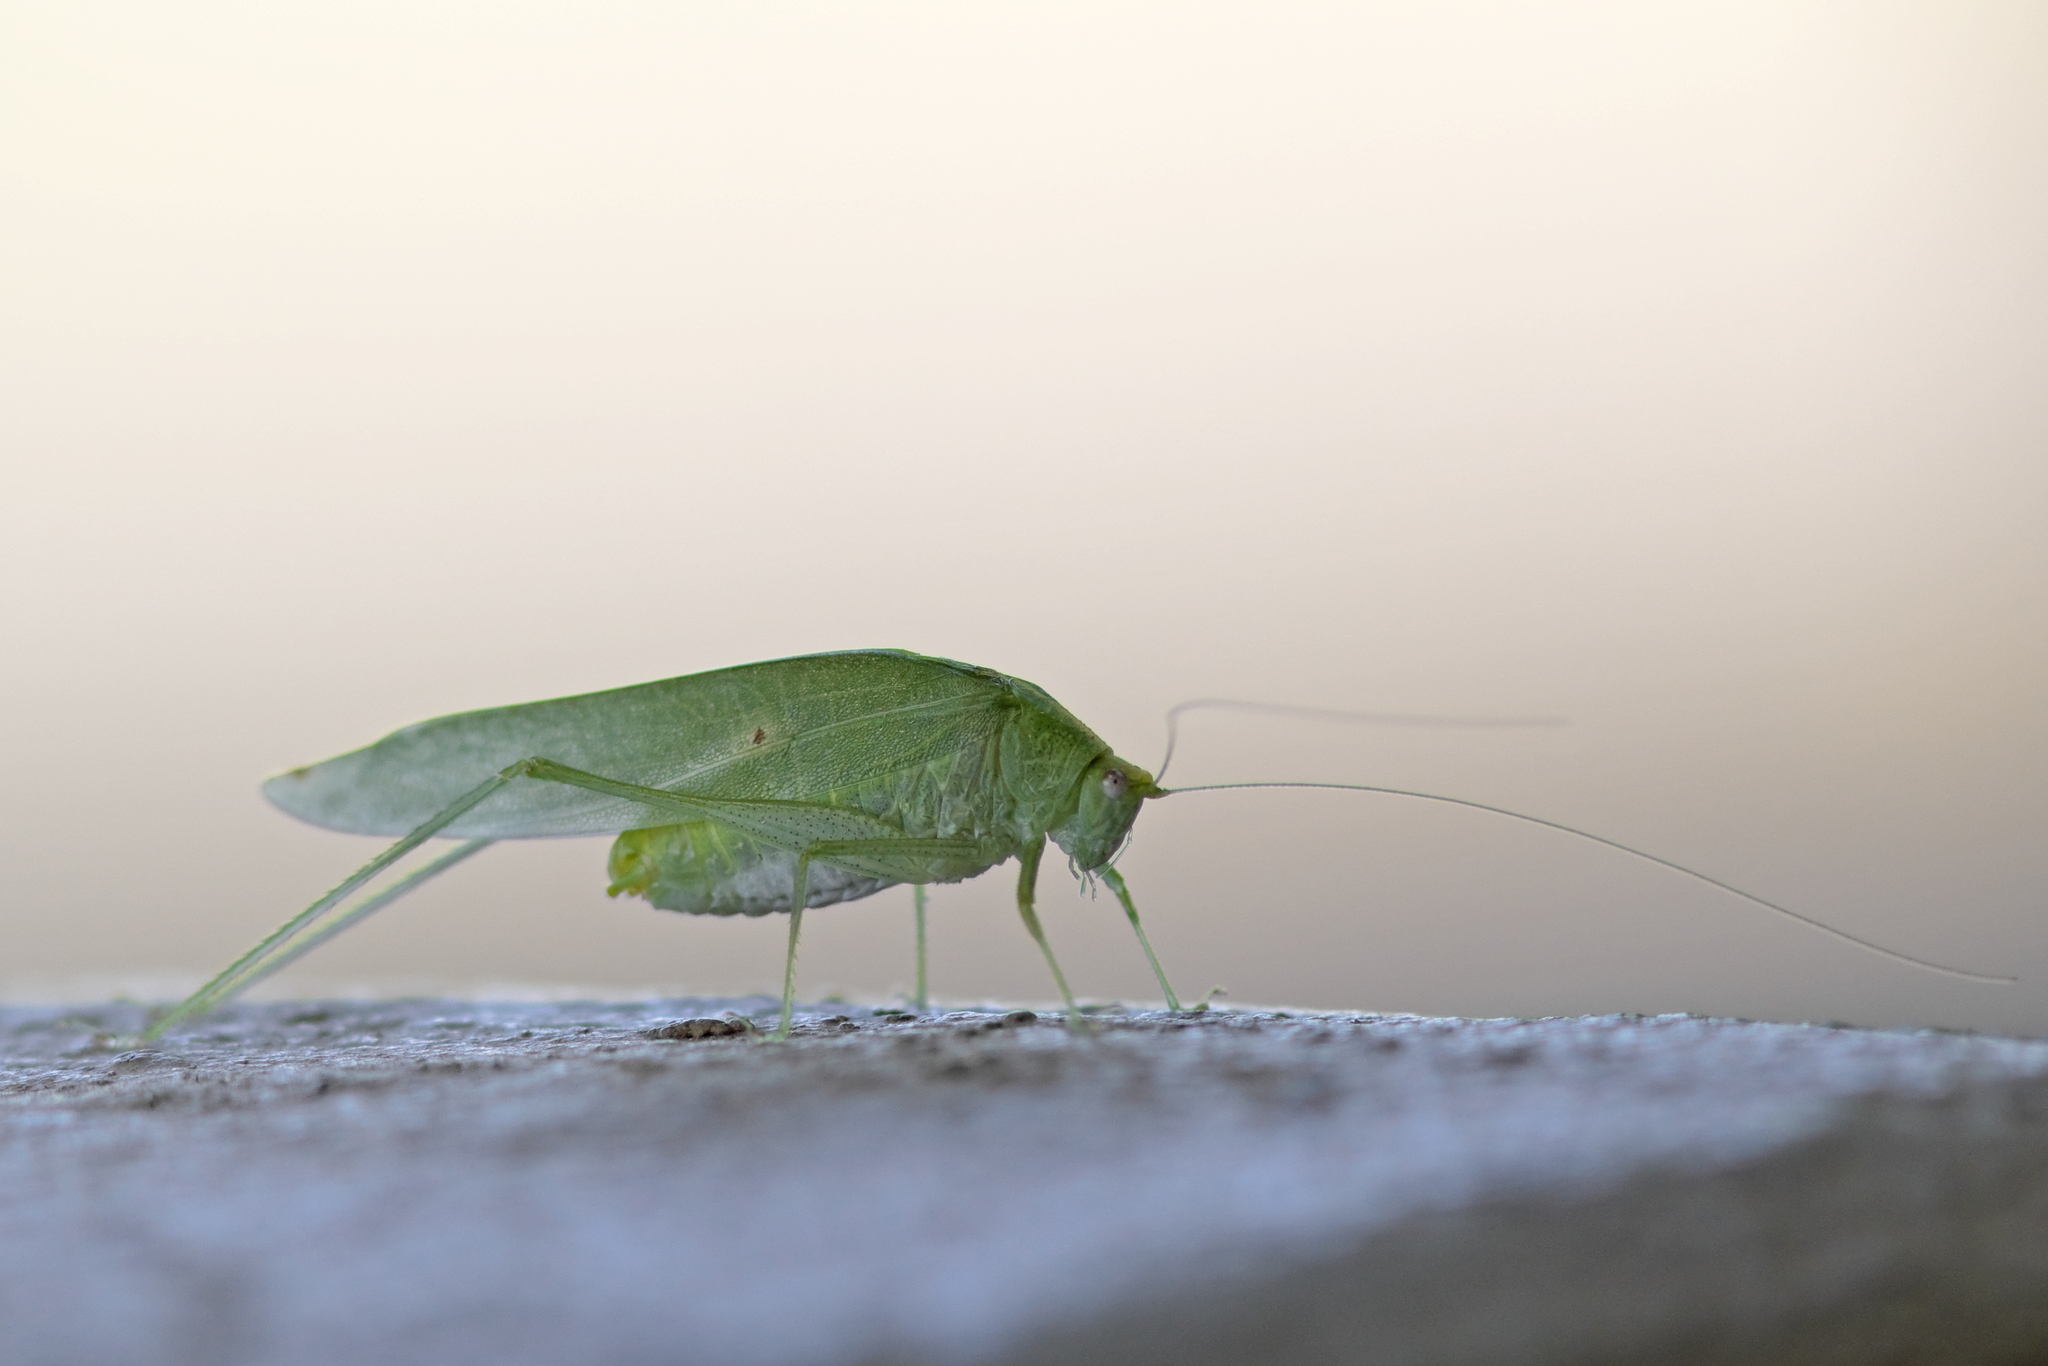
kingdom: Animalia
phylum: Arthropoda
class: Insecta
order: Orthoptera
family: Tettigoniidae
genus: Grammadera
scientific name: Grammadera clara
